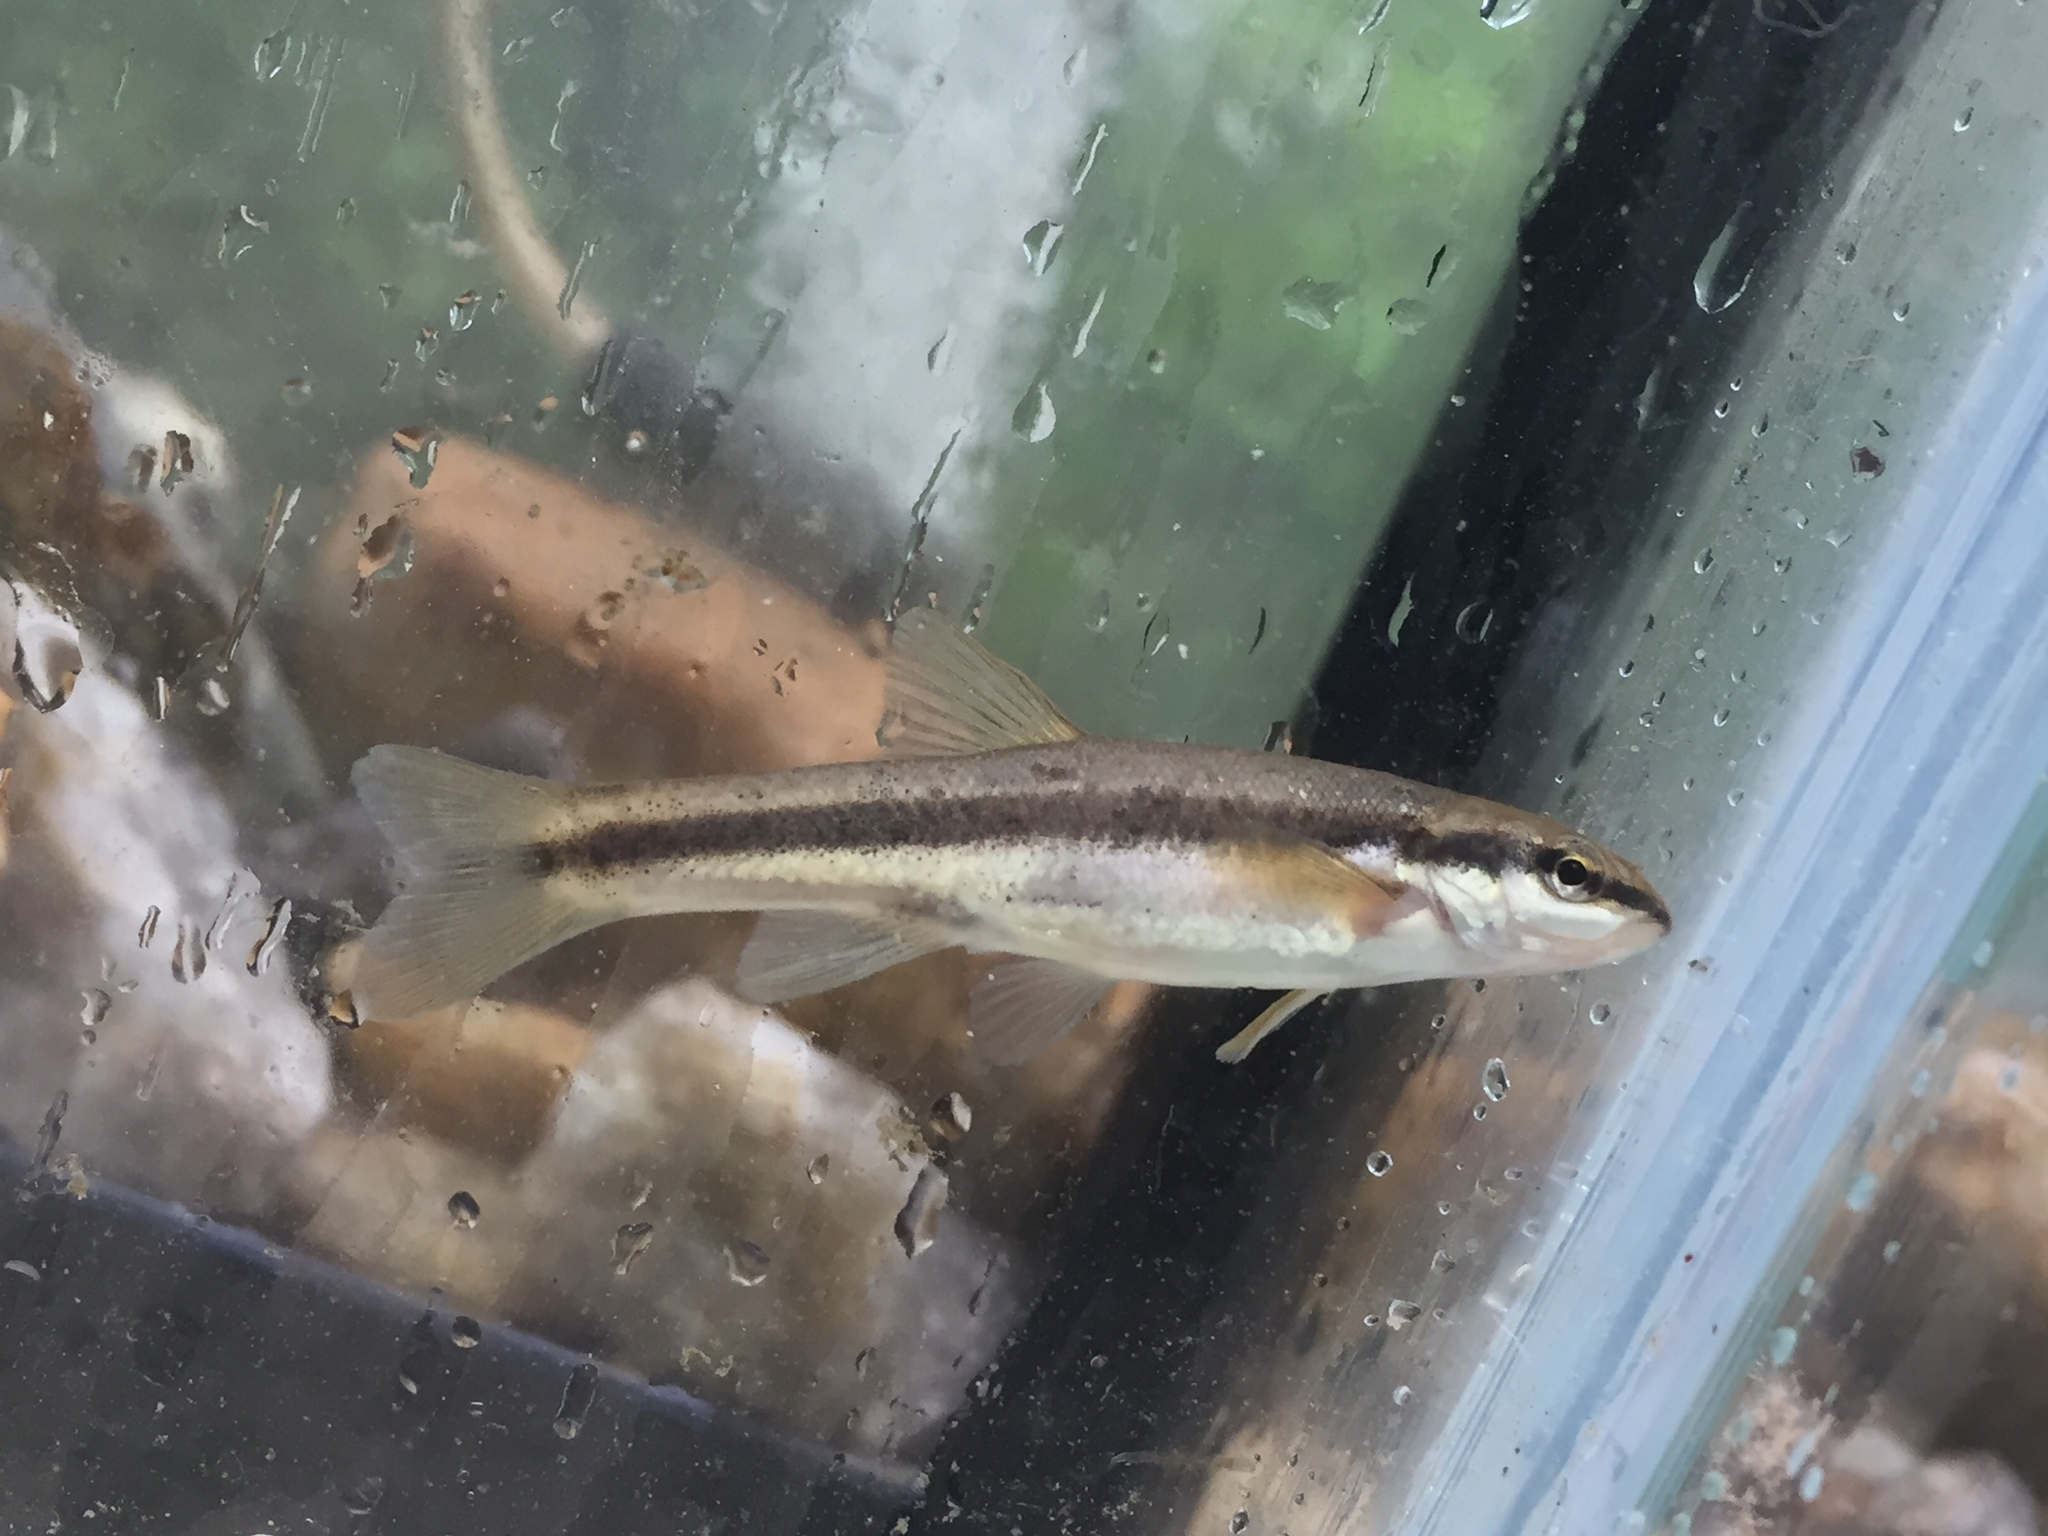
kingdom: Animalia
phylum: Chordata
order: Cypriniformes
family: Cyprinidae
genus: Rhinichthys
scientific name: Rhinichthys atratulus
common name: Eastern blacknose dace
